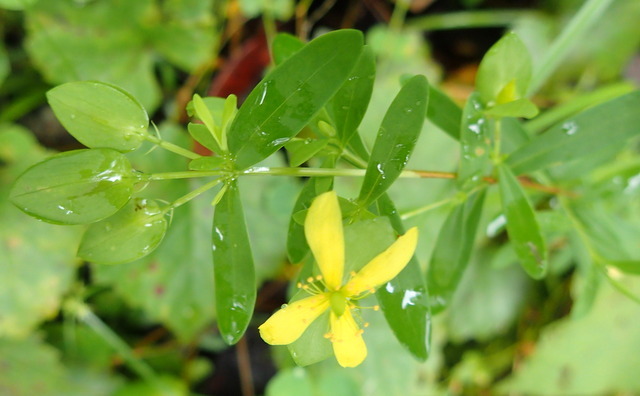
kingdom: Plantae
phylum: Tracheophyta
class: Magnoliopsida
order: Malpighiales
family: Hypericaceae
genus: Hypericum
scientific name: Hypericum hypericoides
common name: St. andrew's cross
